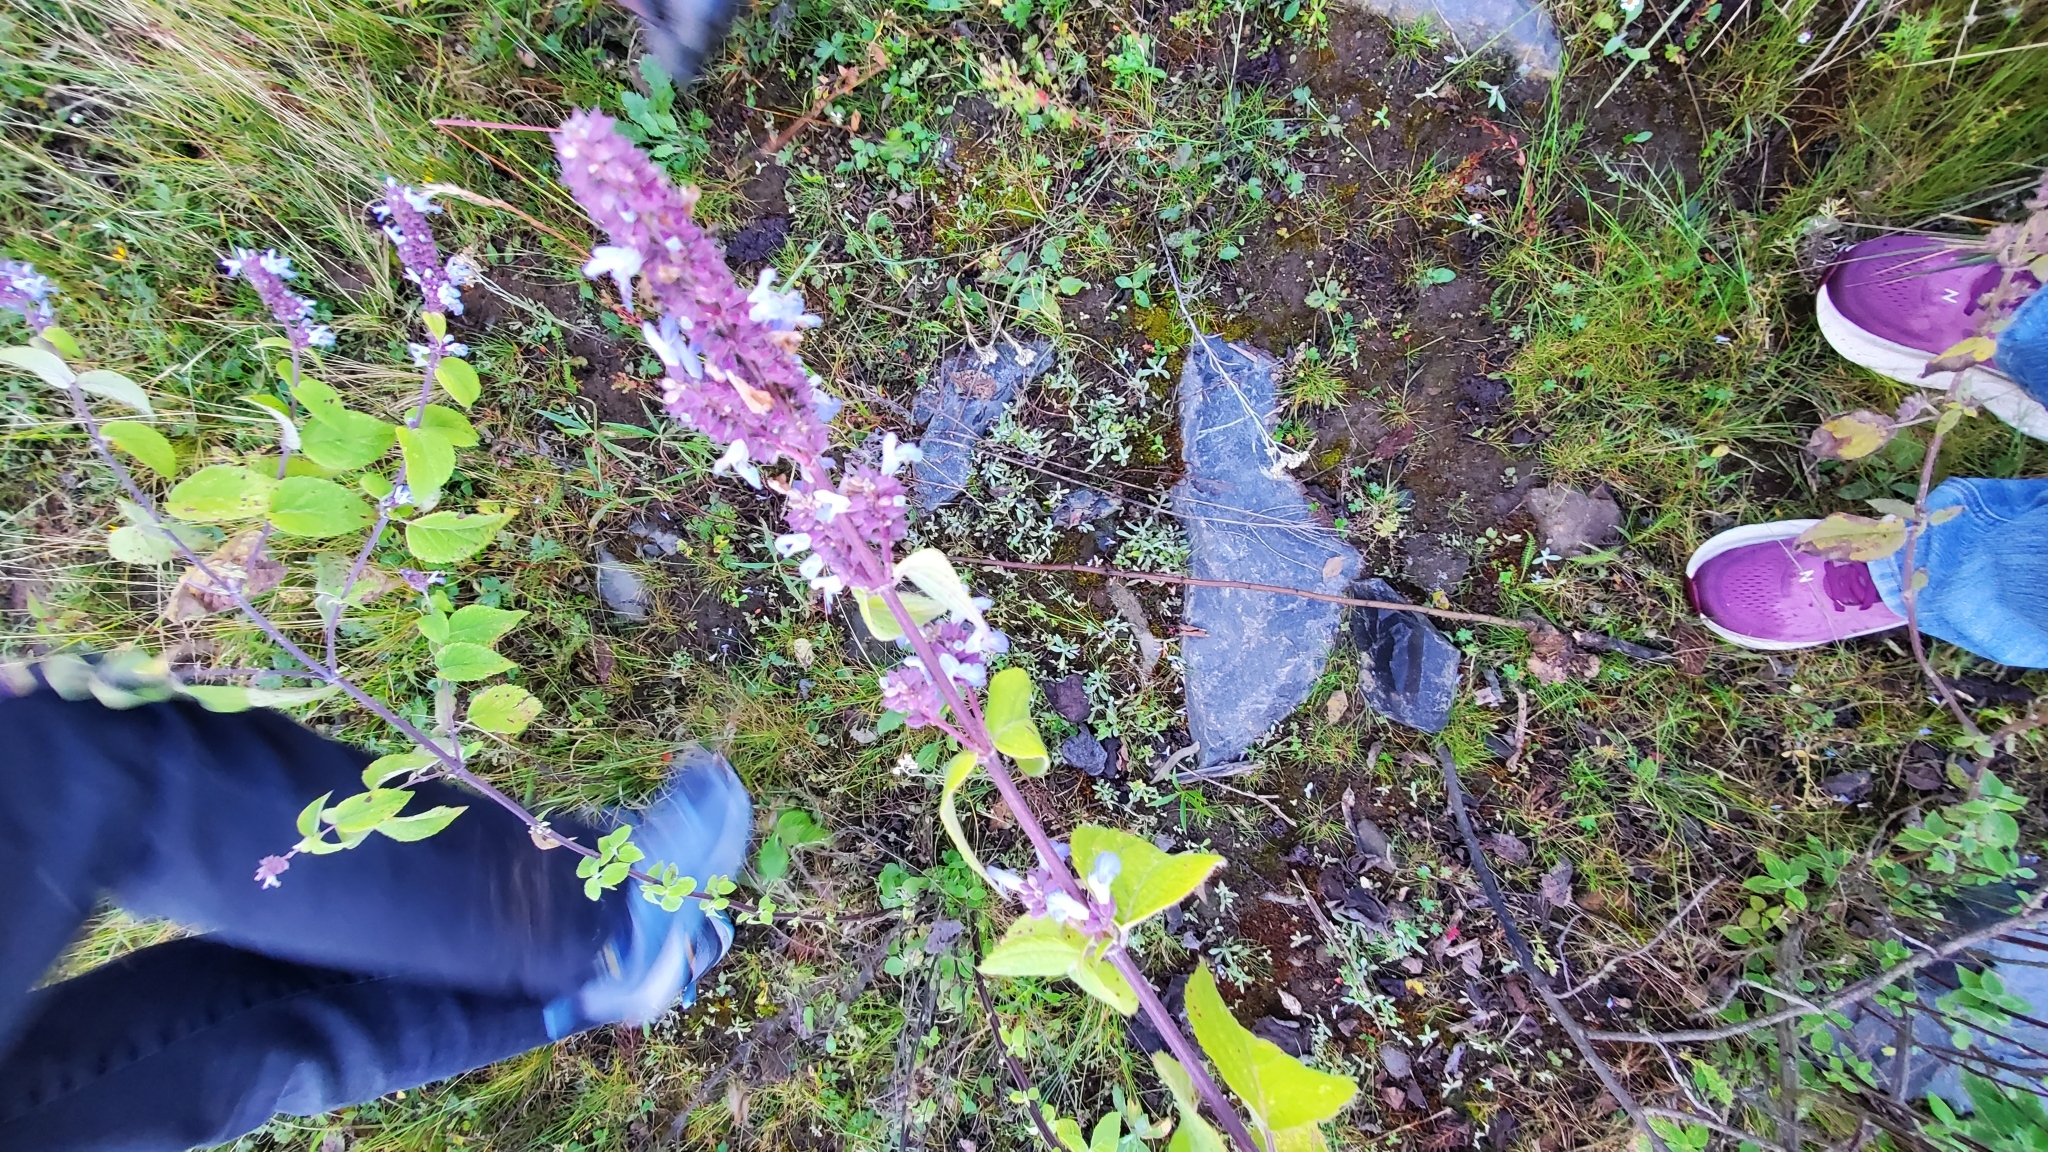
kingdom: Plantae
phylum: Tracheophyta
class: Magnoliopsida
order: Lamiales
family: Lamiaceae
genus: Salvia
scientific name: Salvia polystachia
